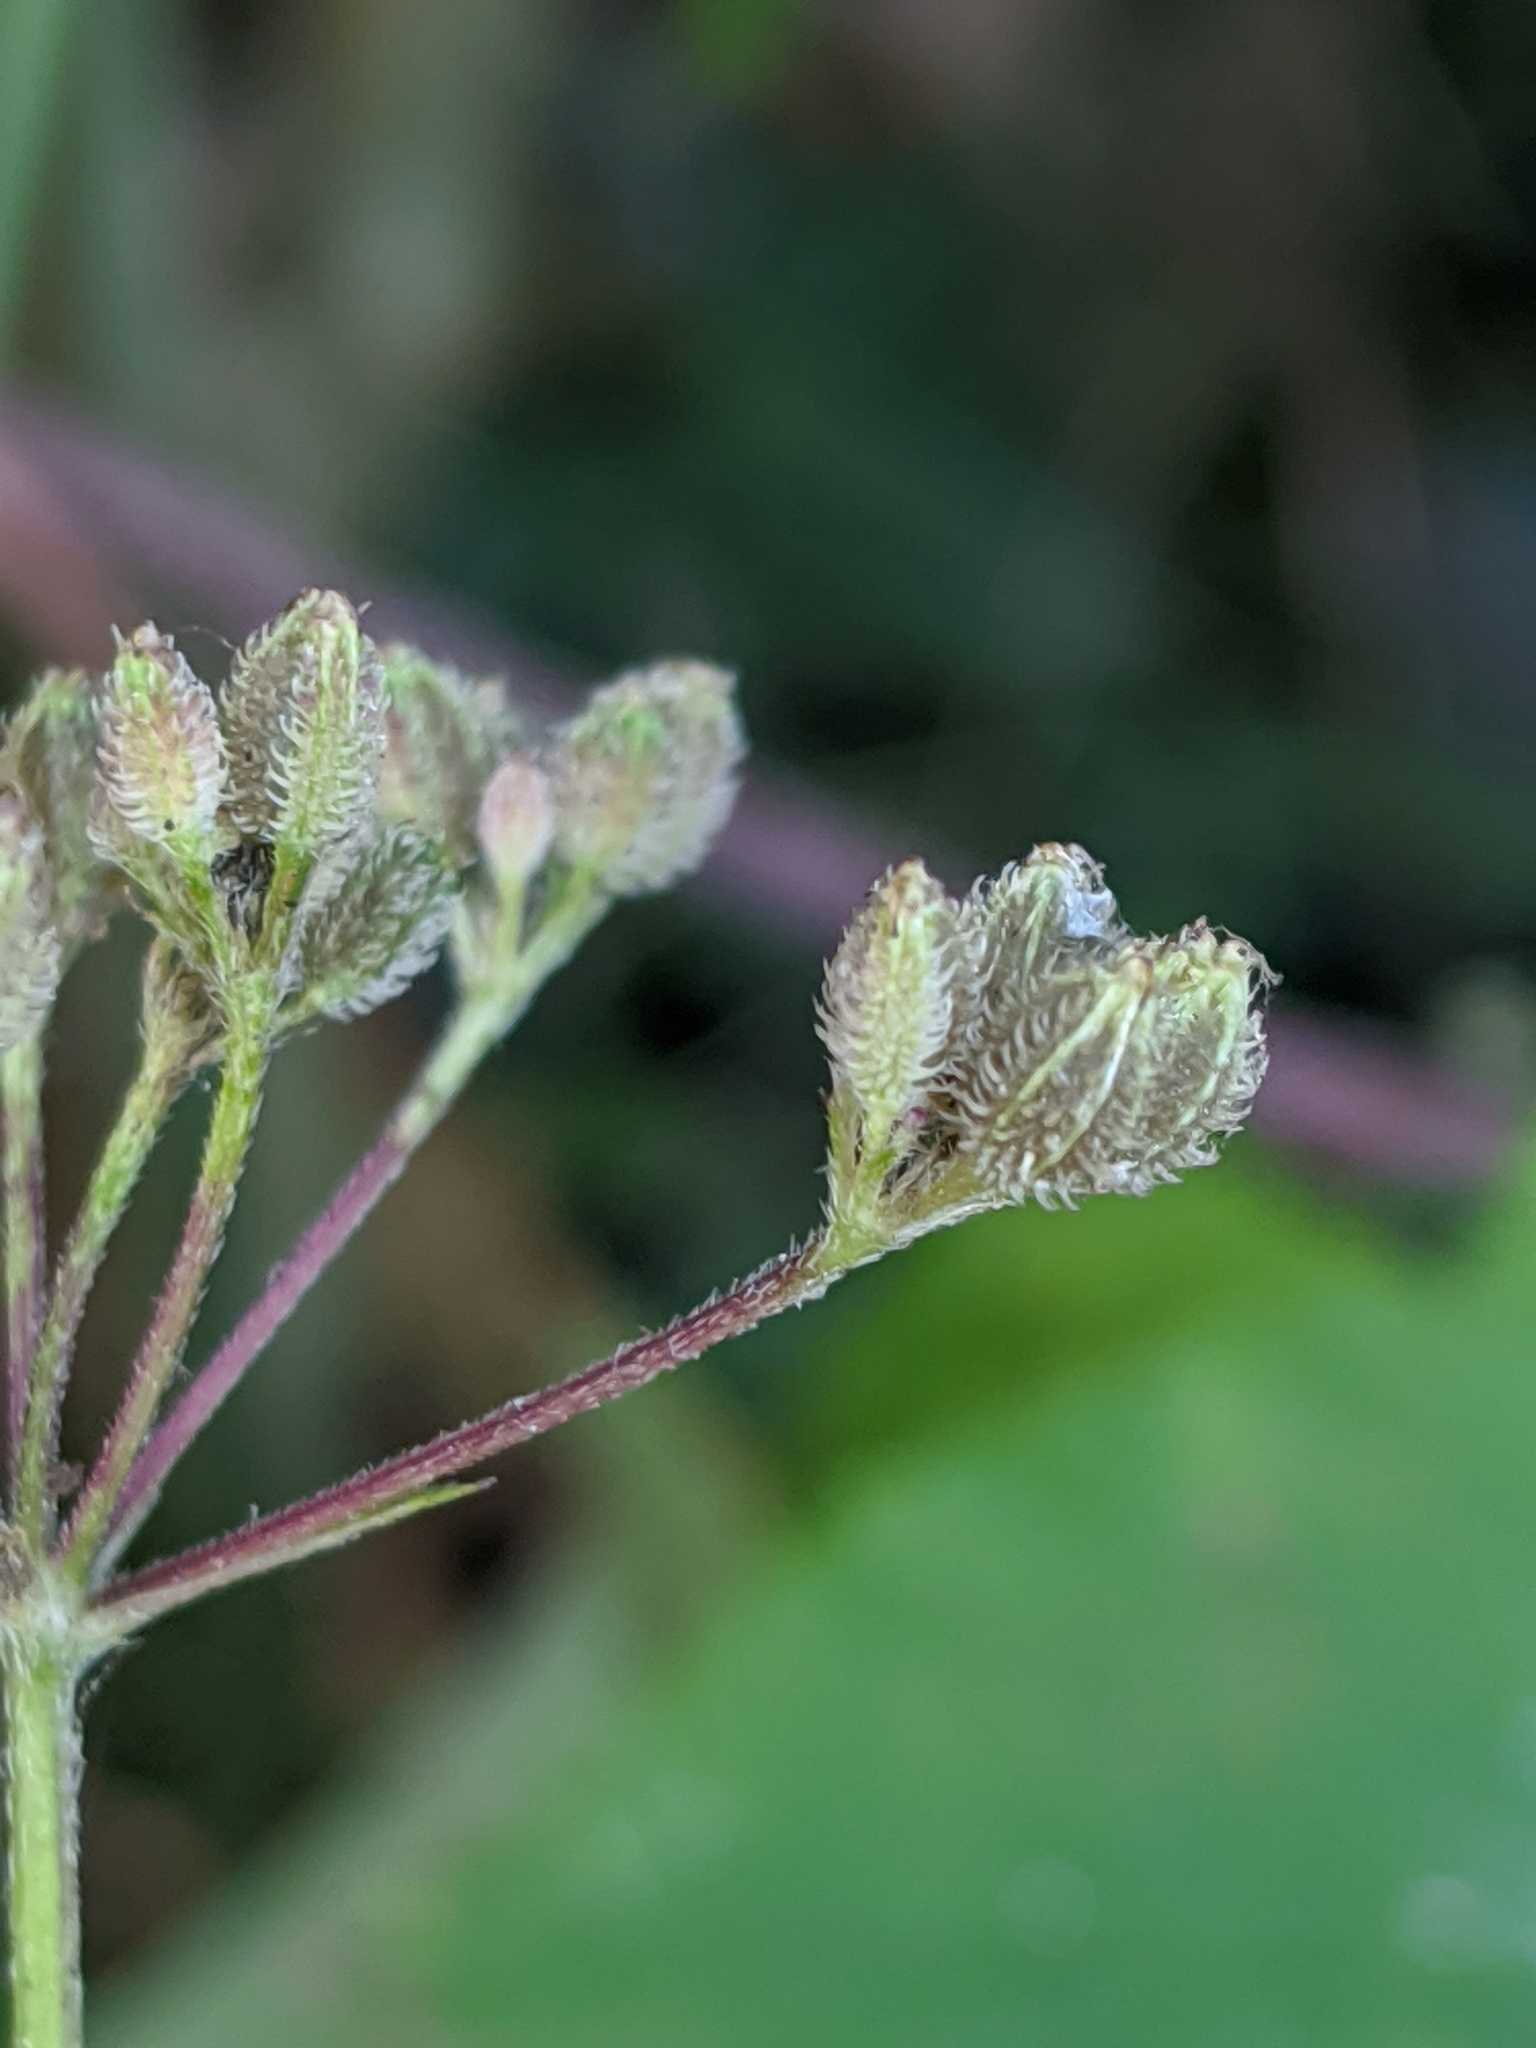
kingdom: Plantae
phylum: Tracheophyta
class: Magnoliopsida
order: Apiales
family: Apiaceae
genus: Torilis
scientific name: Torilis japonica
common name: Upright hedge-parsley
